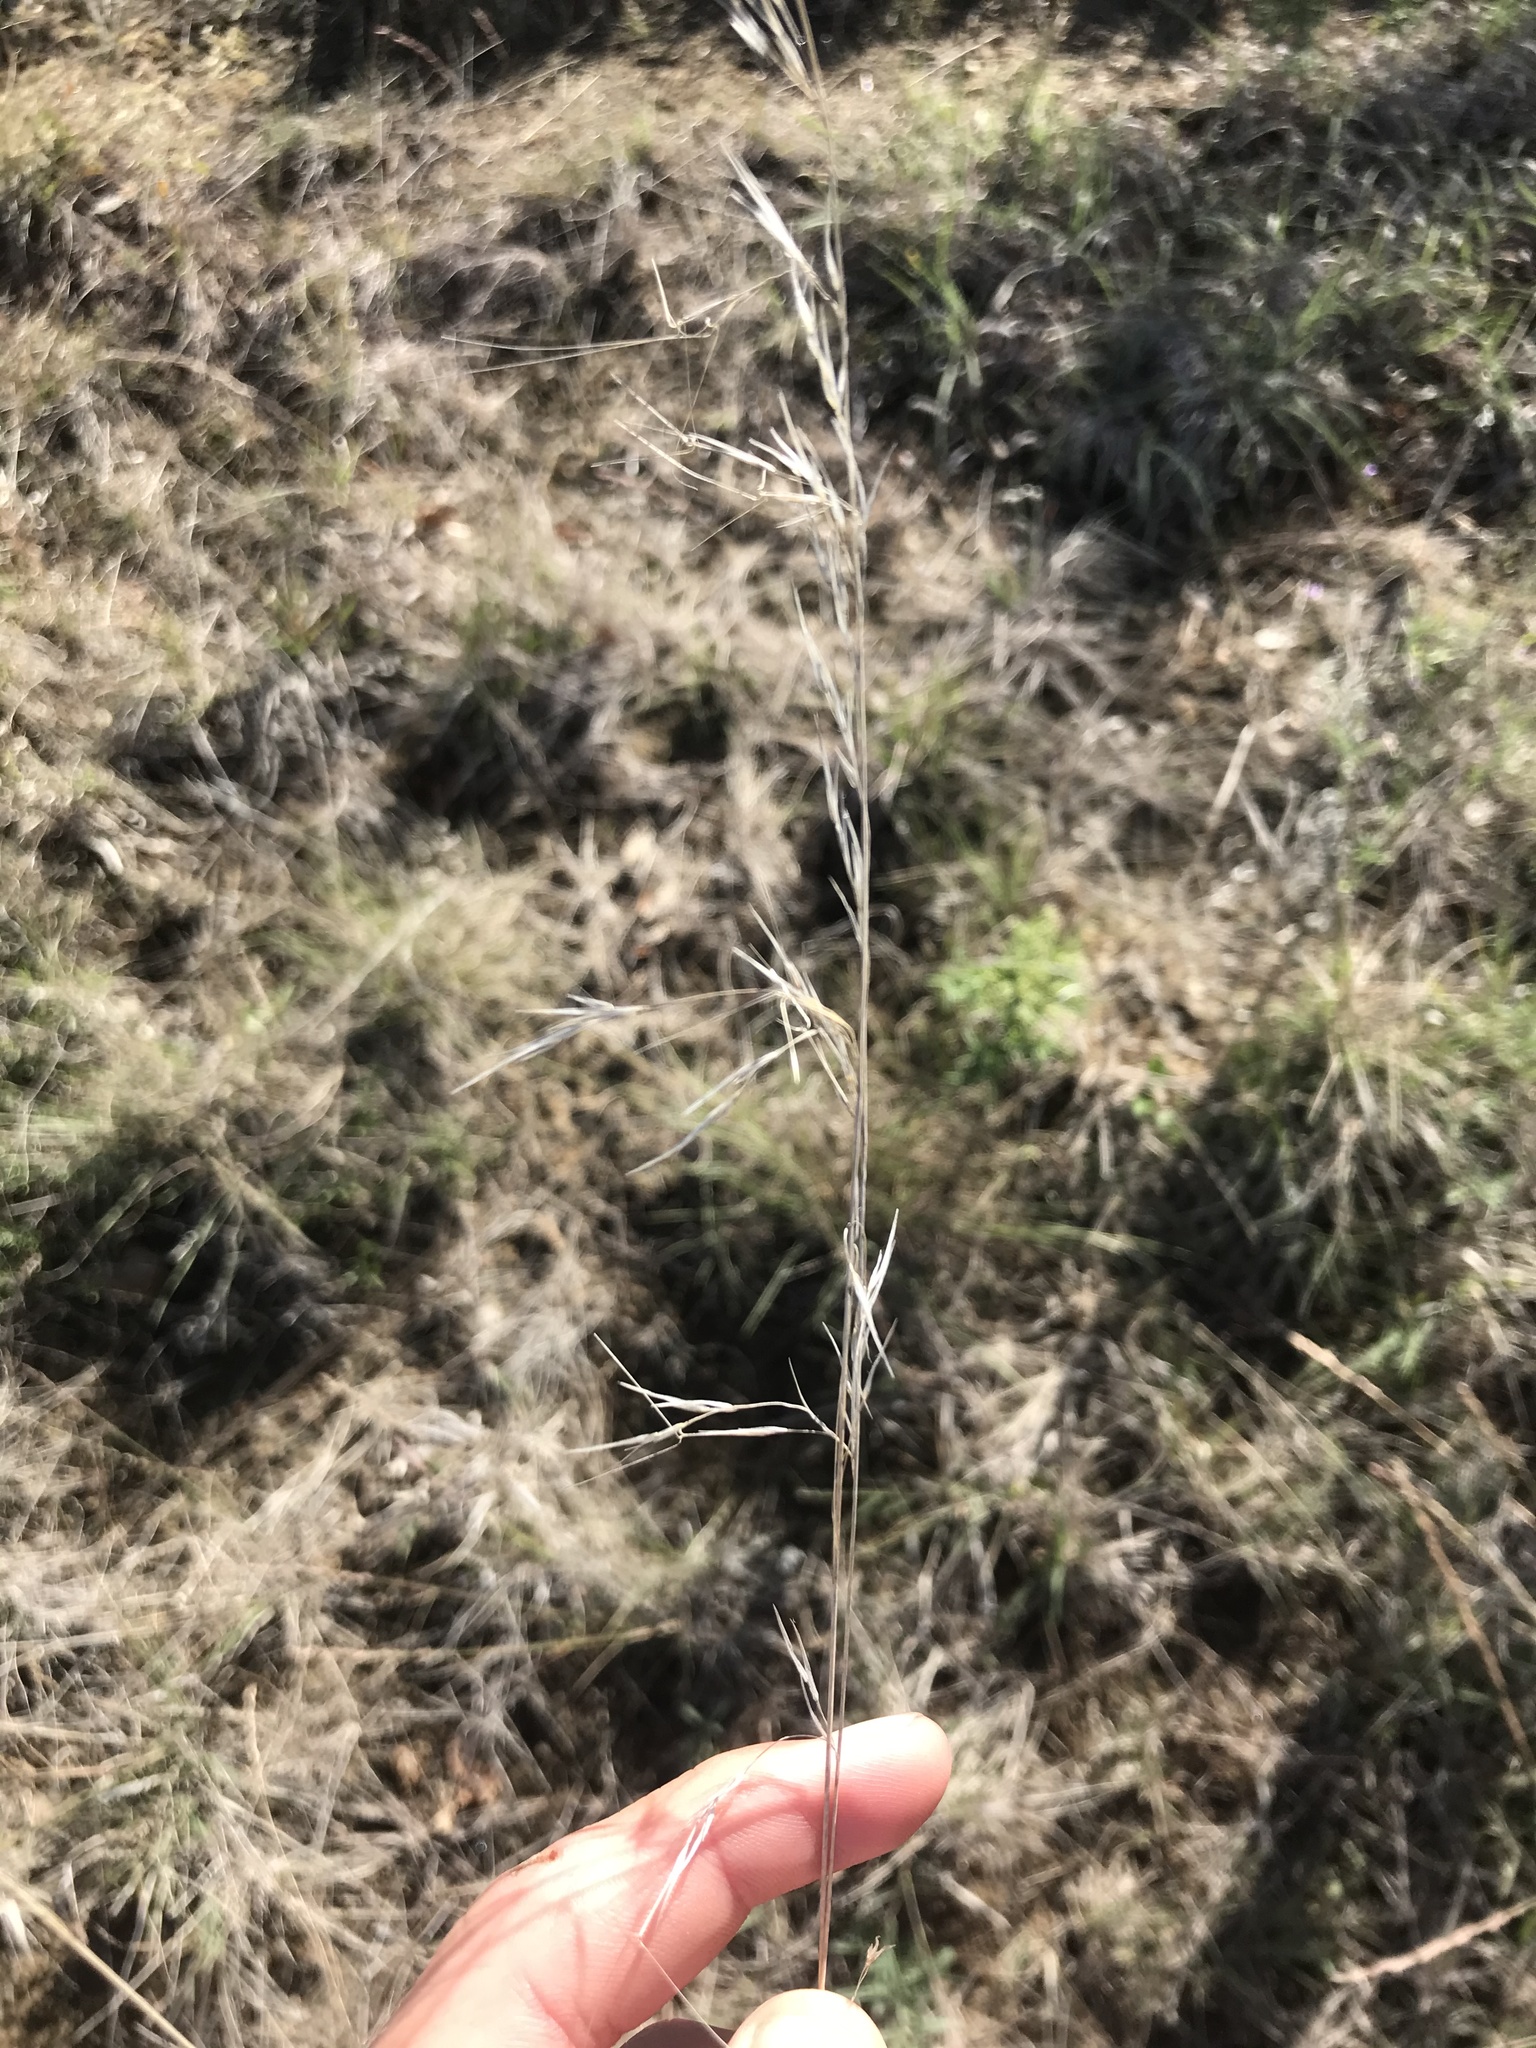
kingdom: Plantae
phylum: Tracheophyta
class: Liliopsida
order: Poales
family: Poaceae
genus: Aristida
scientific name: Aristida oligantha
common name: Few-flowered aristida
